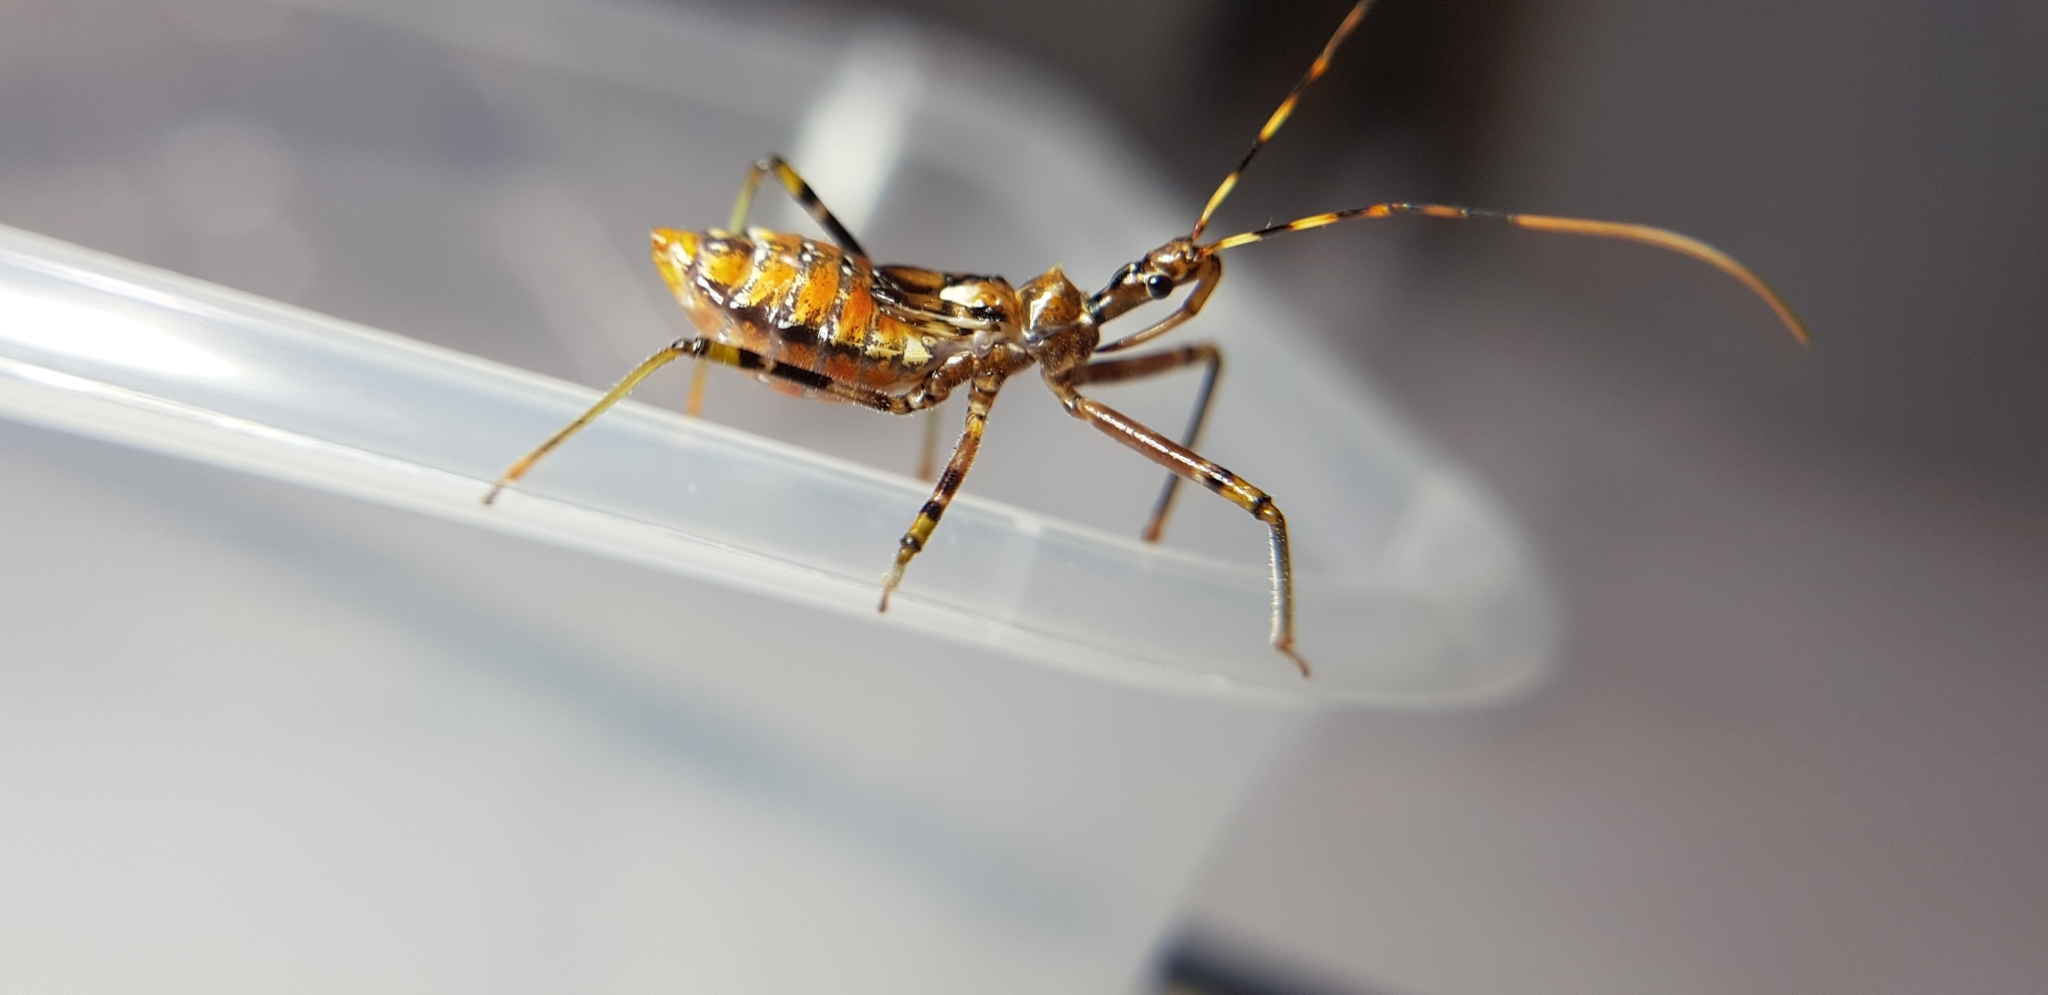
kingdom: Animalia
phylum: Arthropoda
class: Insecta
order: Hemiptera
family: Reduviidae
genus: Pristhesancus
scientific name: Pristhesancus plagipennis
